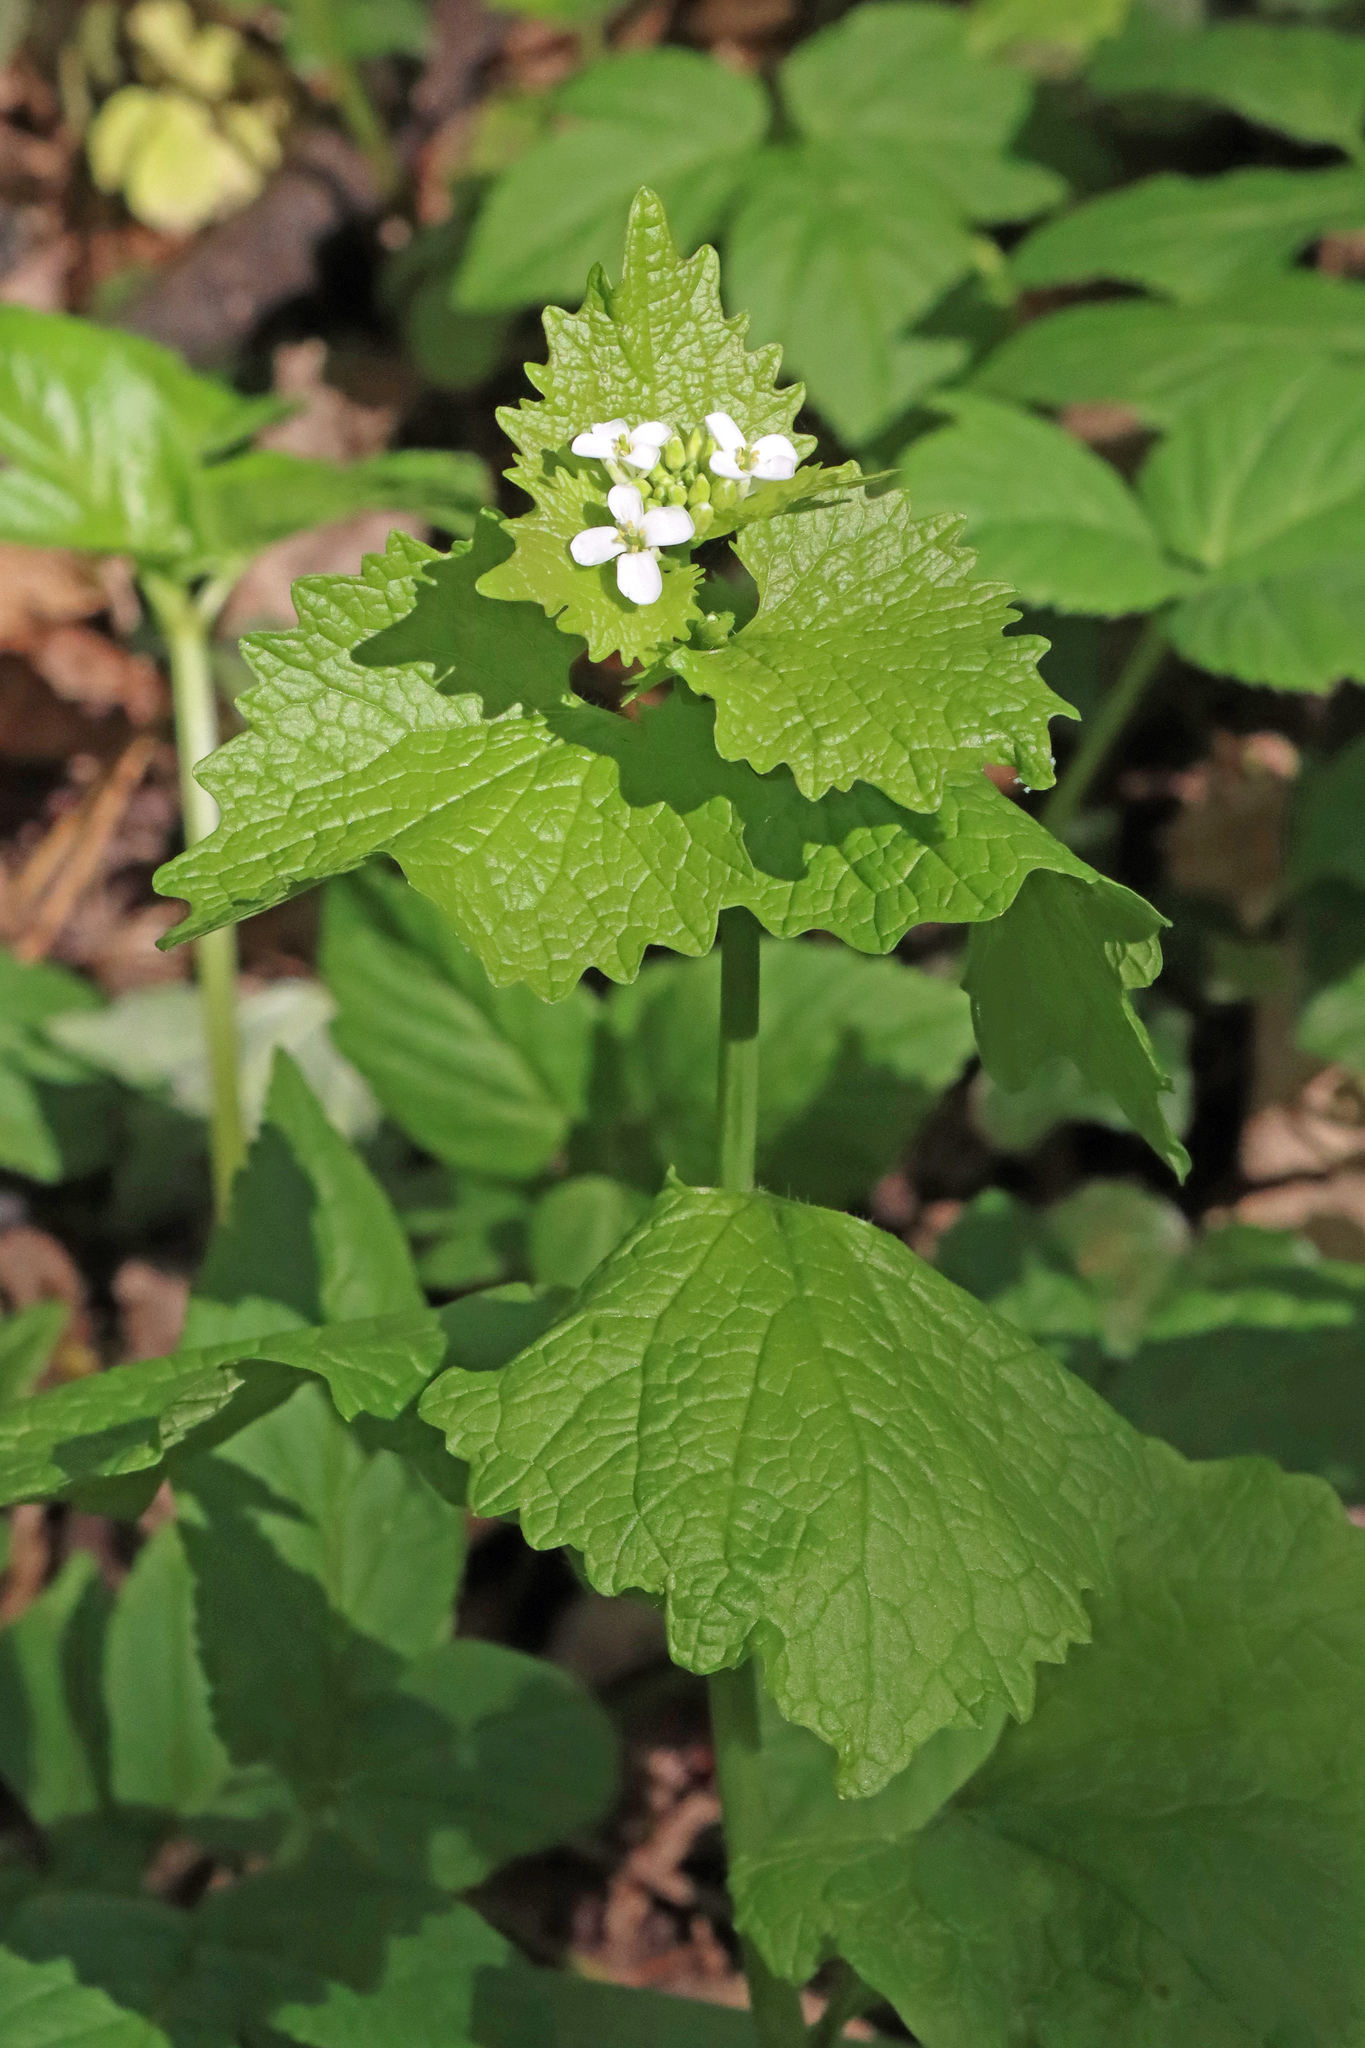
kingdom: Plantae
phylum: Tracheophyta
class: Magnoliopsida
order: Brassicales
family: Brassicaceae
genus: Alliaria
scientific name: Alliaria petiolata
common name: Garlic mustard
